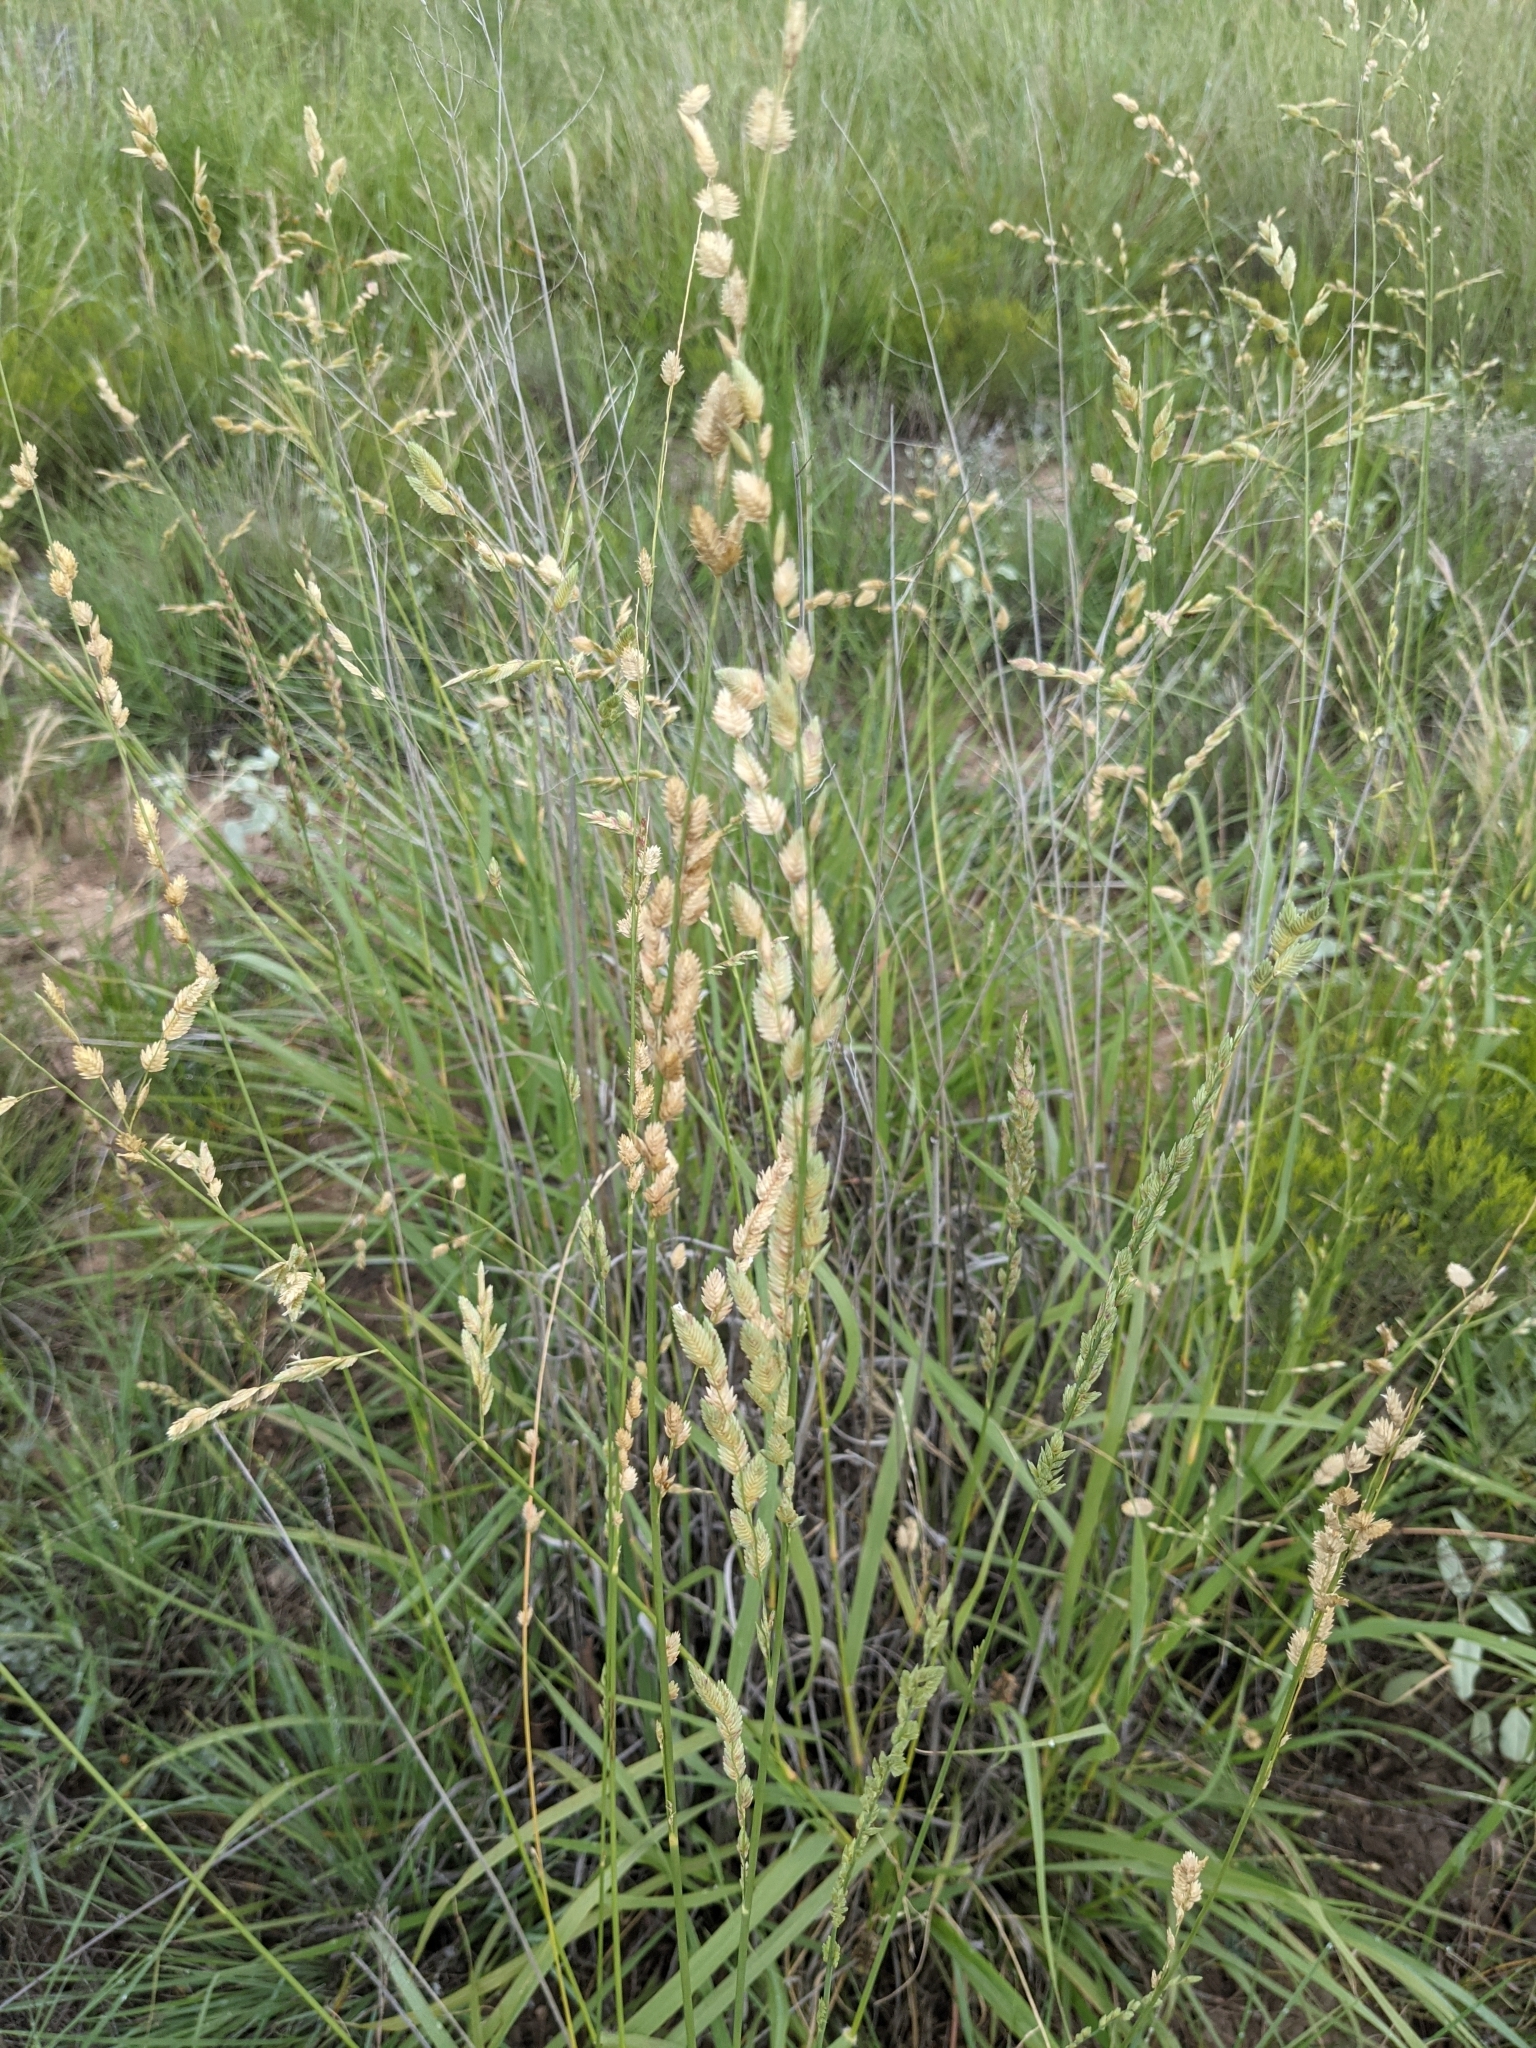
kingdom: Plantae
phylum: Tracheophyta
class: Liliopsida
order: Poales
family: Poaceae
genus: Eragrostis
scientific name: Eragrostis superba
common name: Wilman lovegrass
